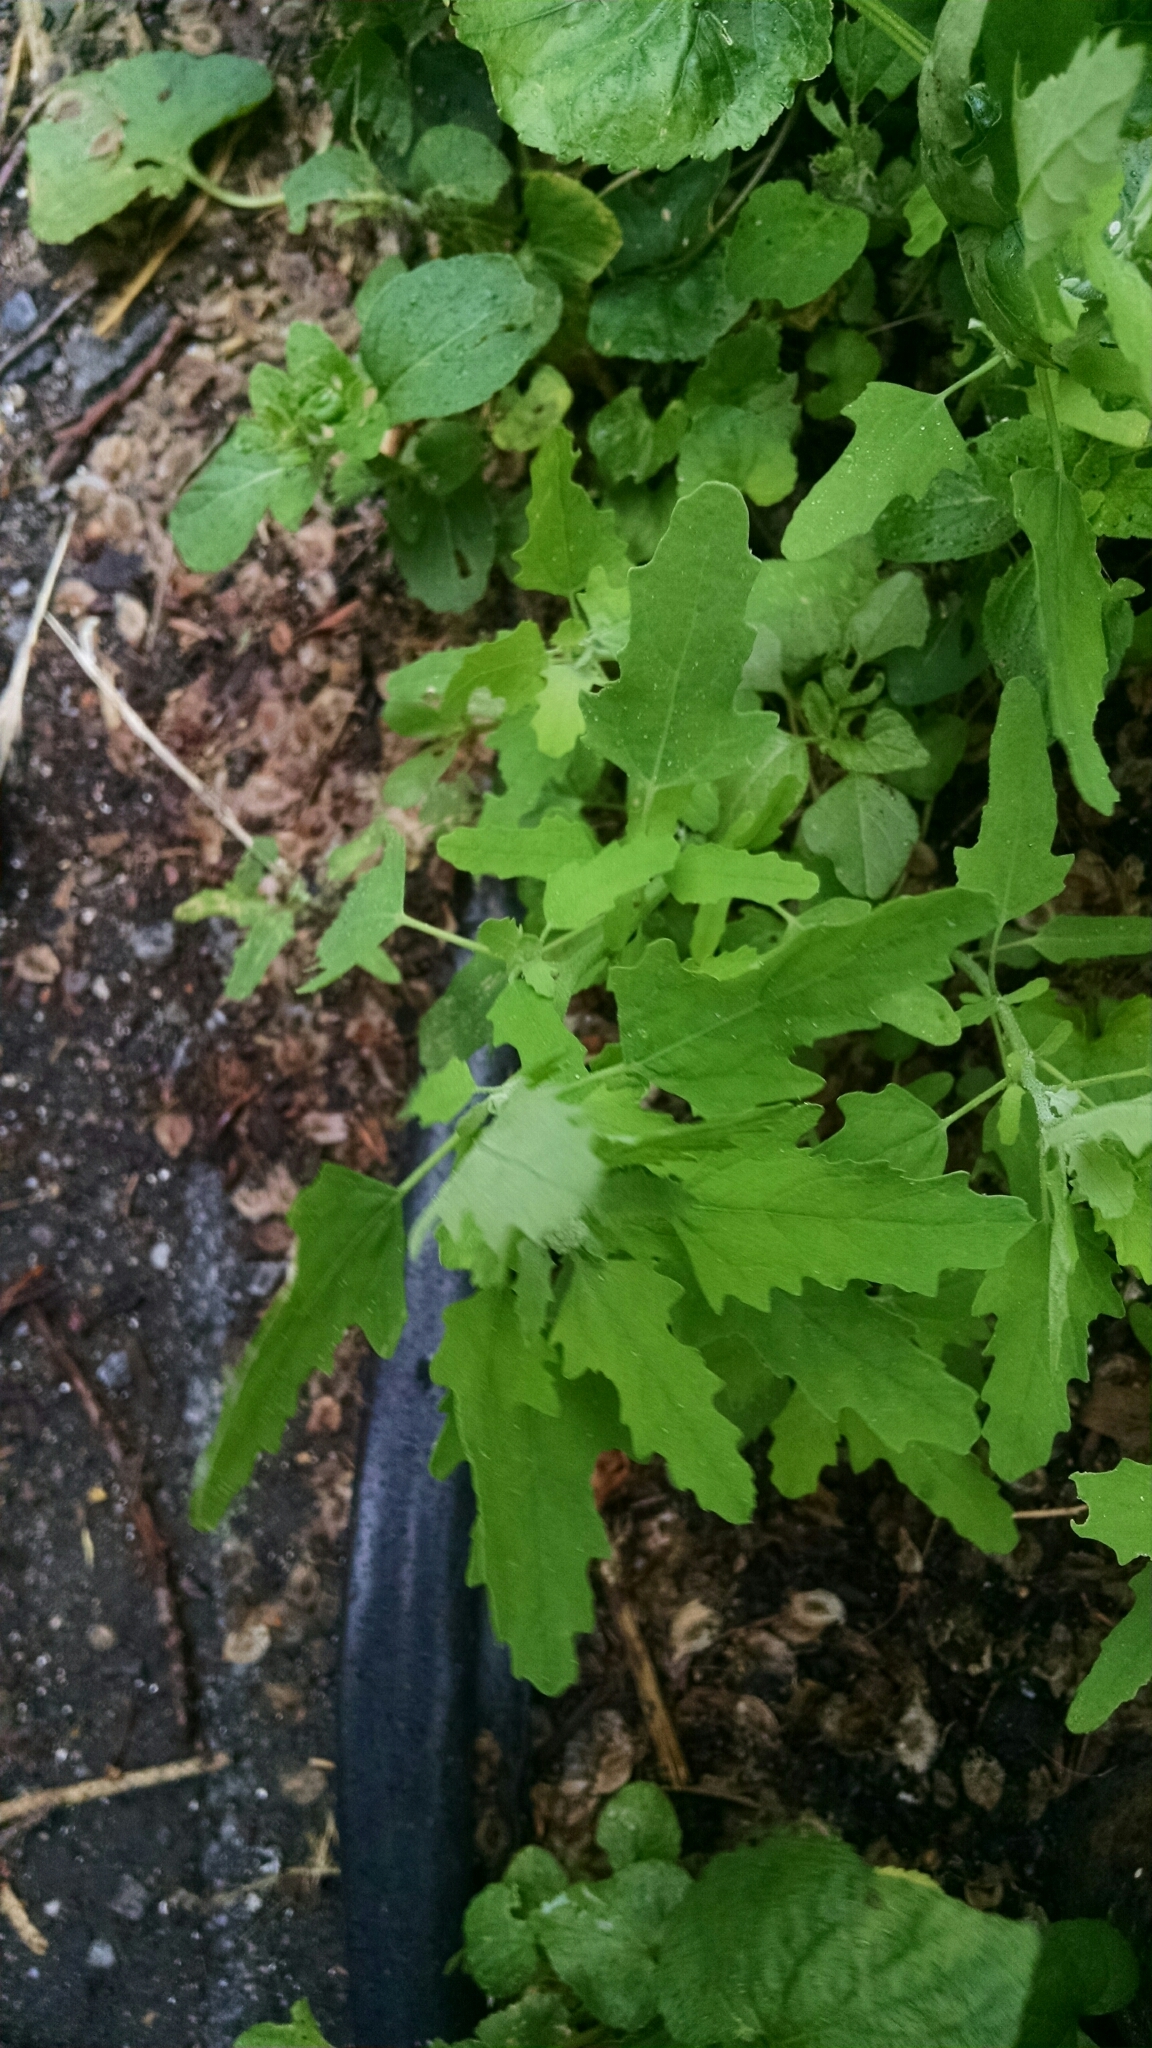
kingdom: Plantae
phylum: Tracheophyta
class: Magnoliopsida
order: Caryophyllales
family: Amaranthaceae
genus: Chenopodium
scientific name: Chenopodium album
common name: Fat-hen
